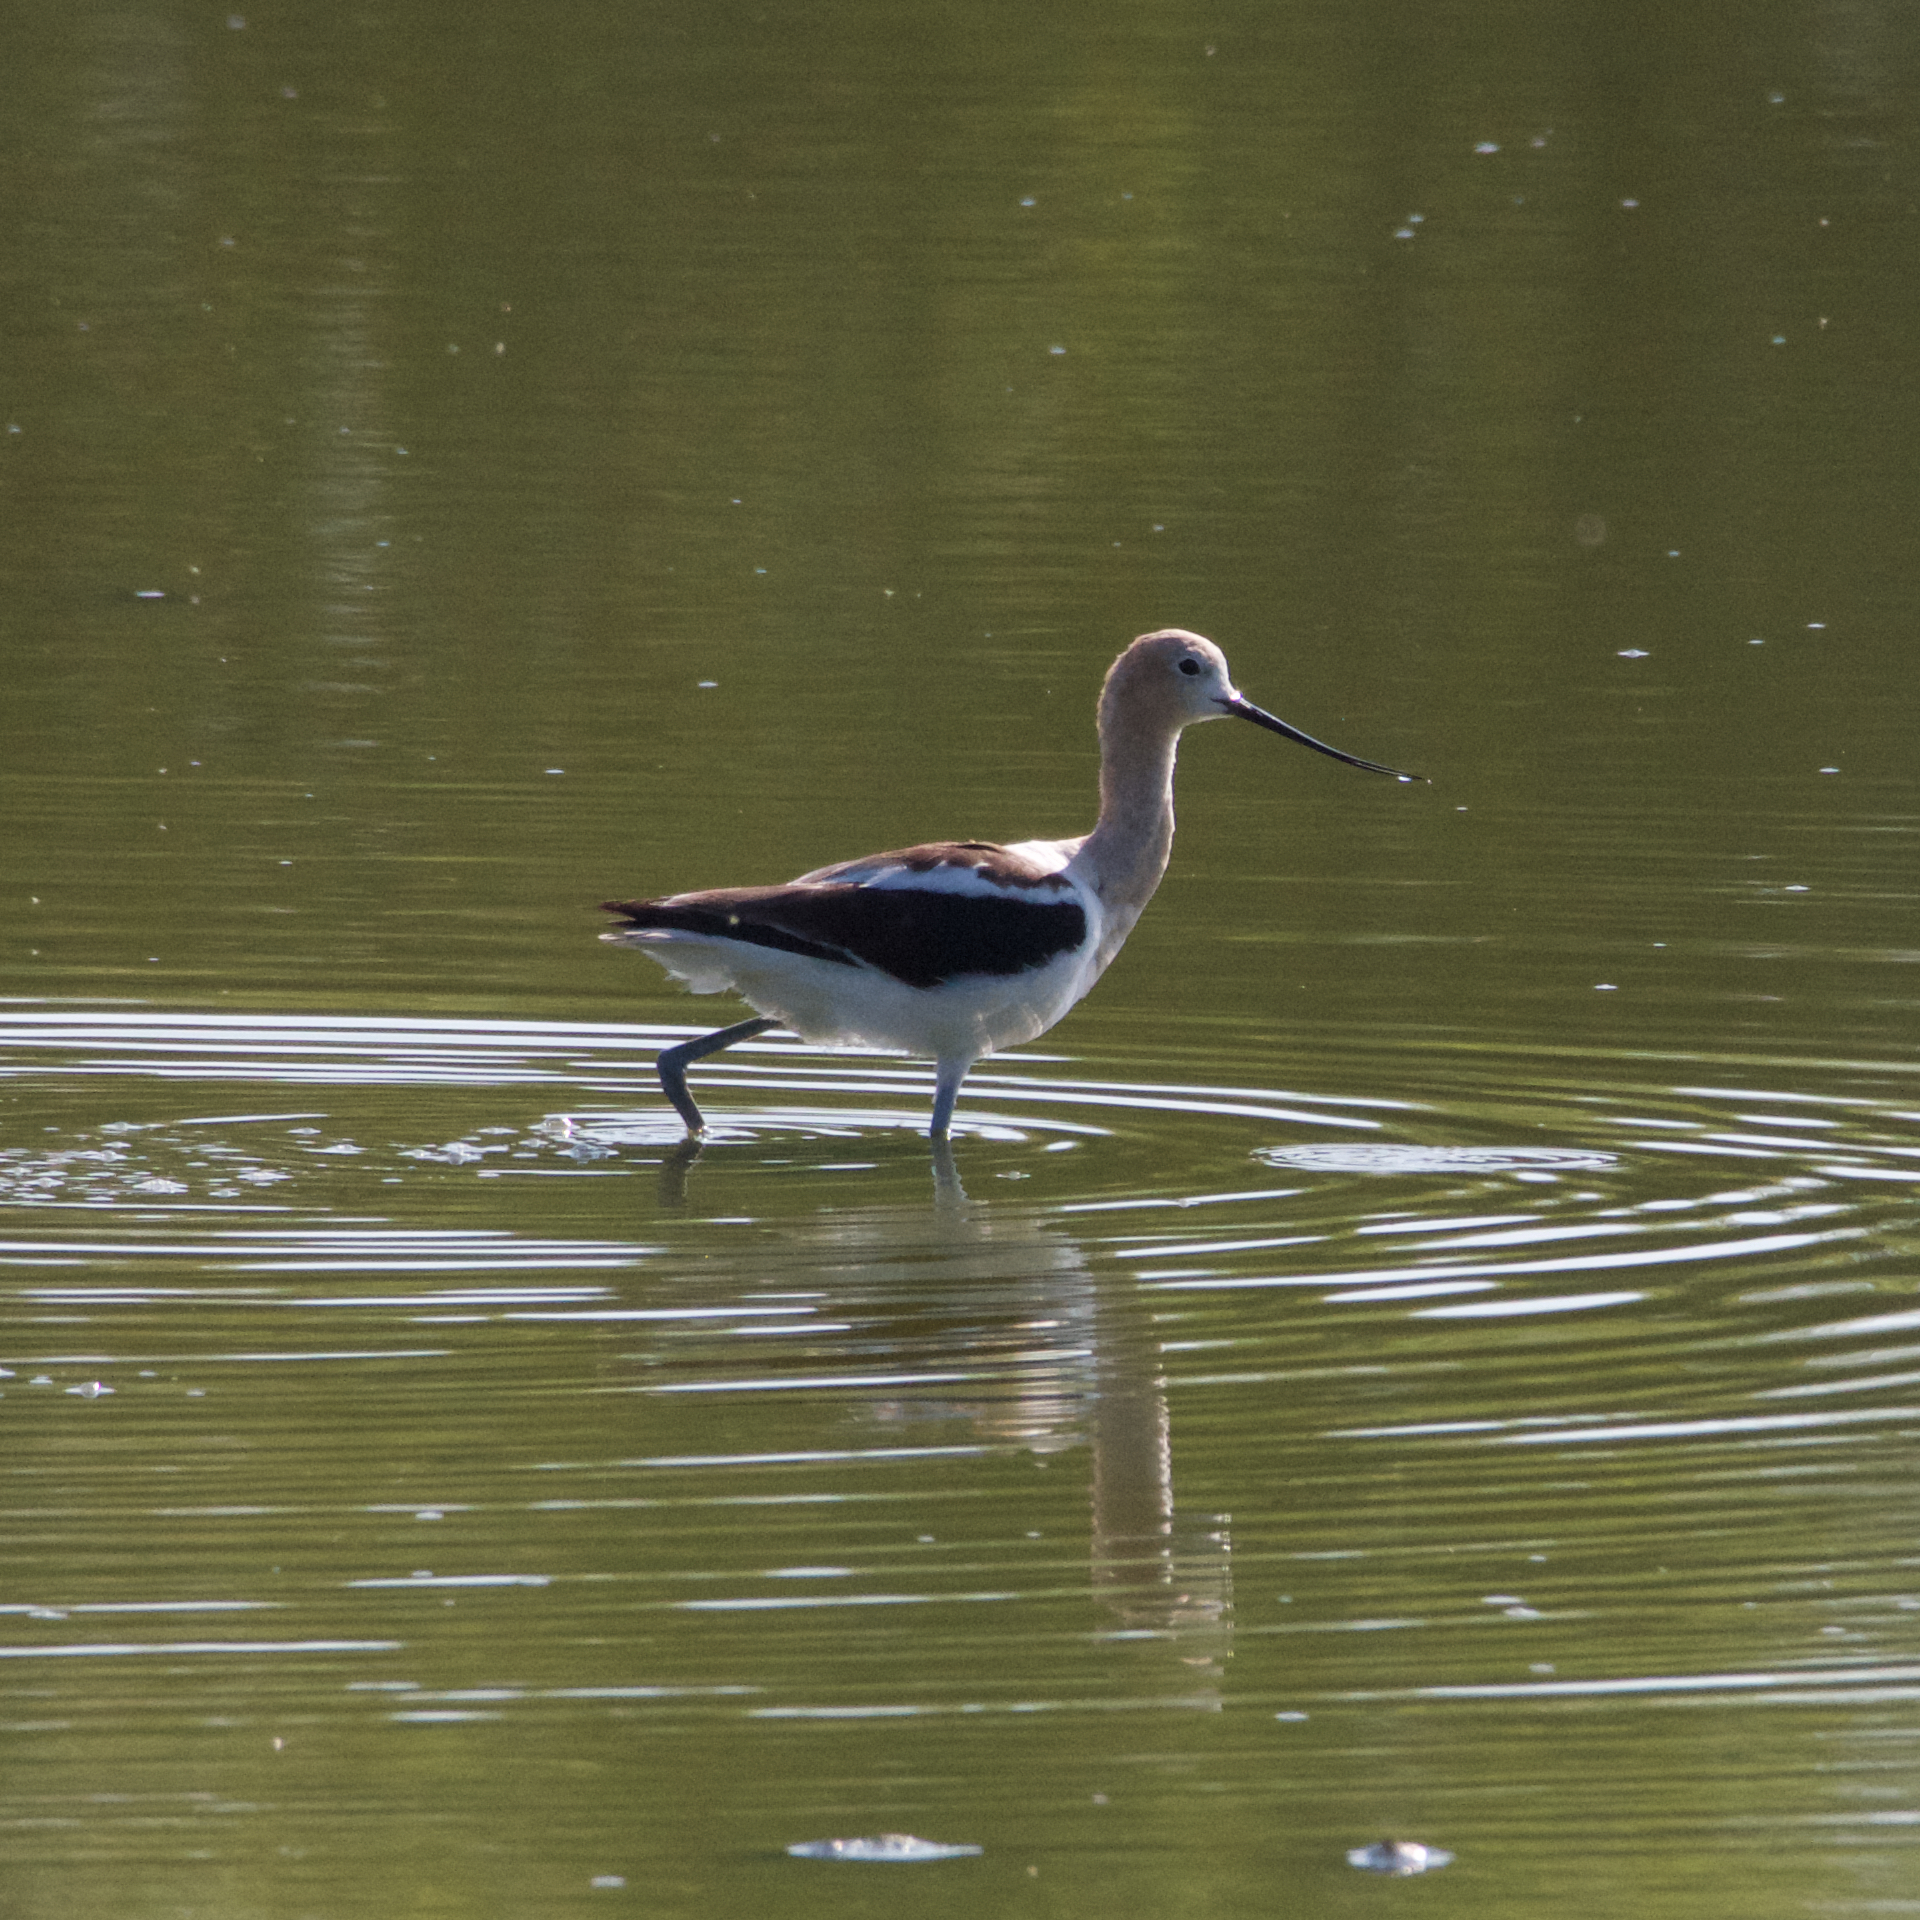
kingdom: Animalia
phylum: Chordata
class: Aves
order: Charadriiformes
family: Recurvirostridae
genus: Recurvirostra
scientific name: Recurvirostra americana
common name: American avocet
